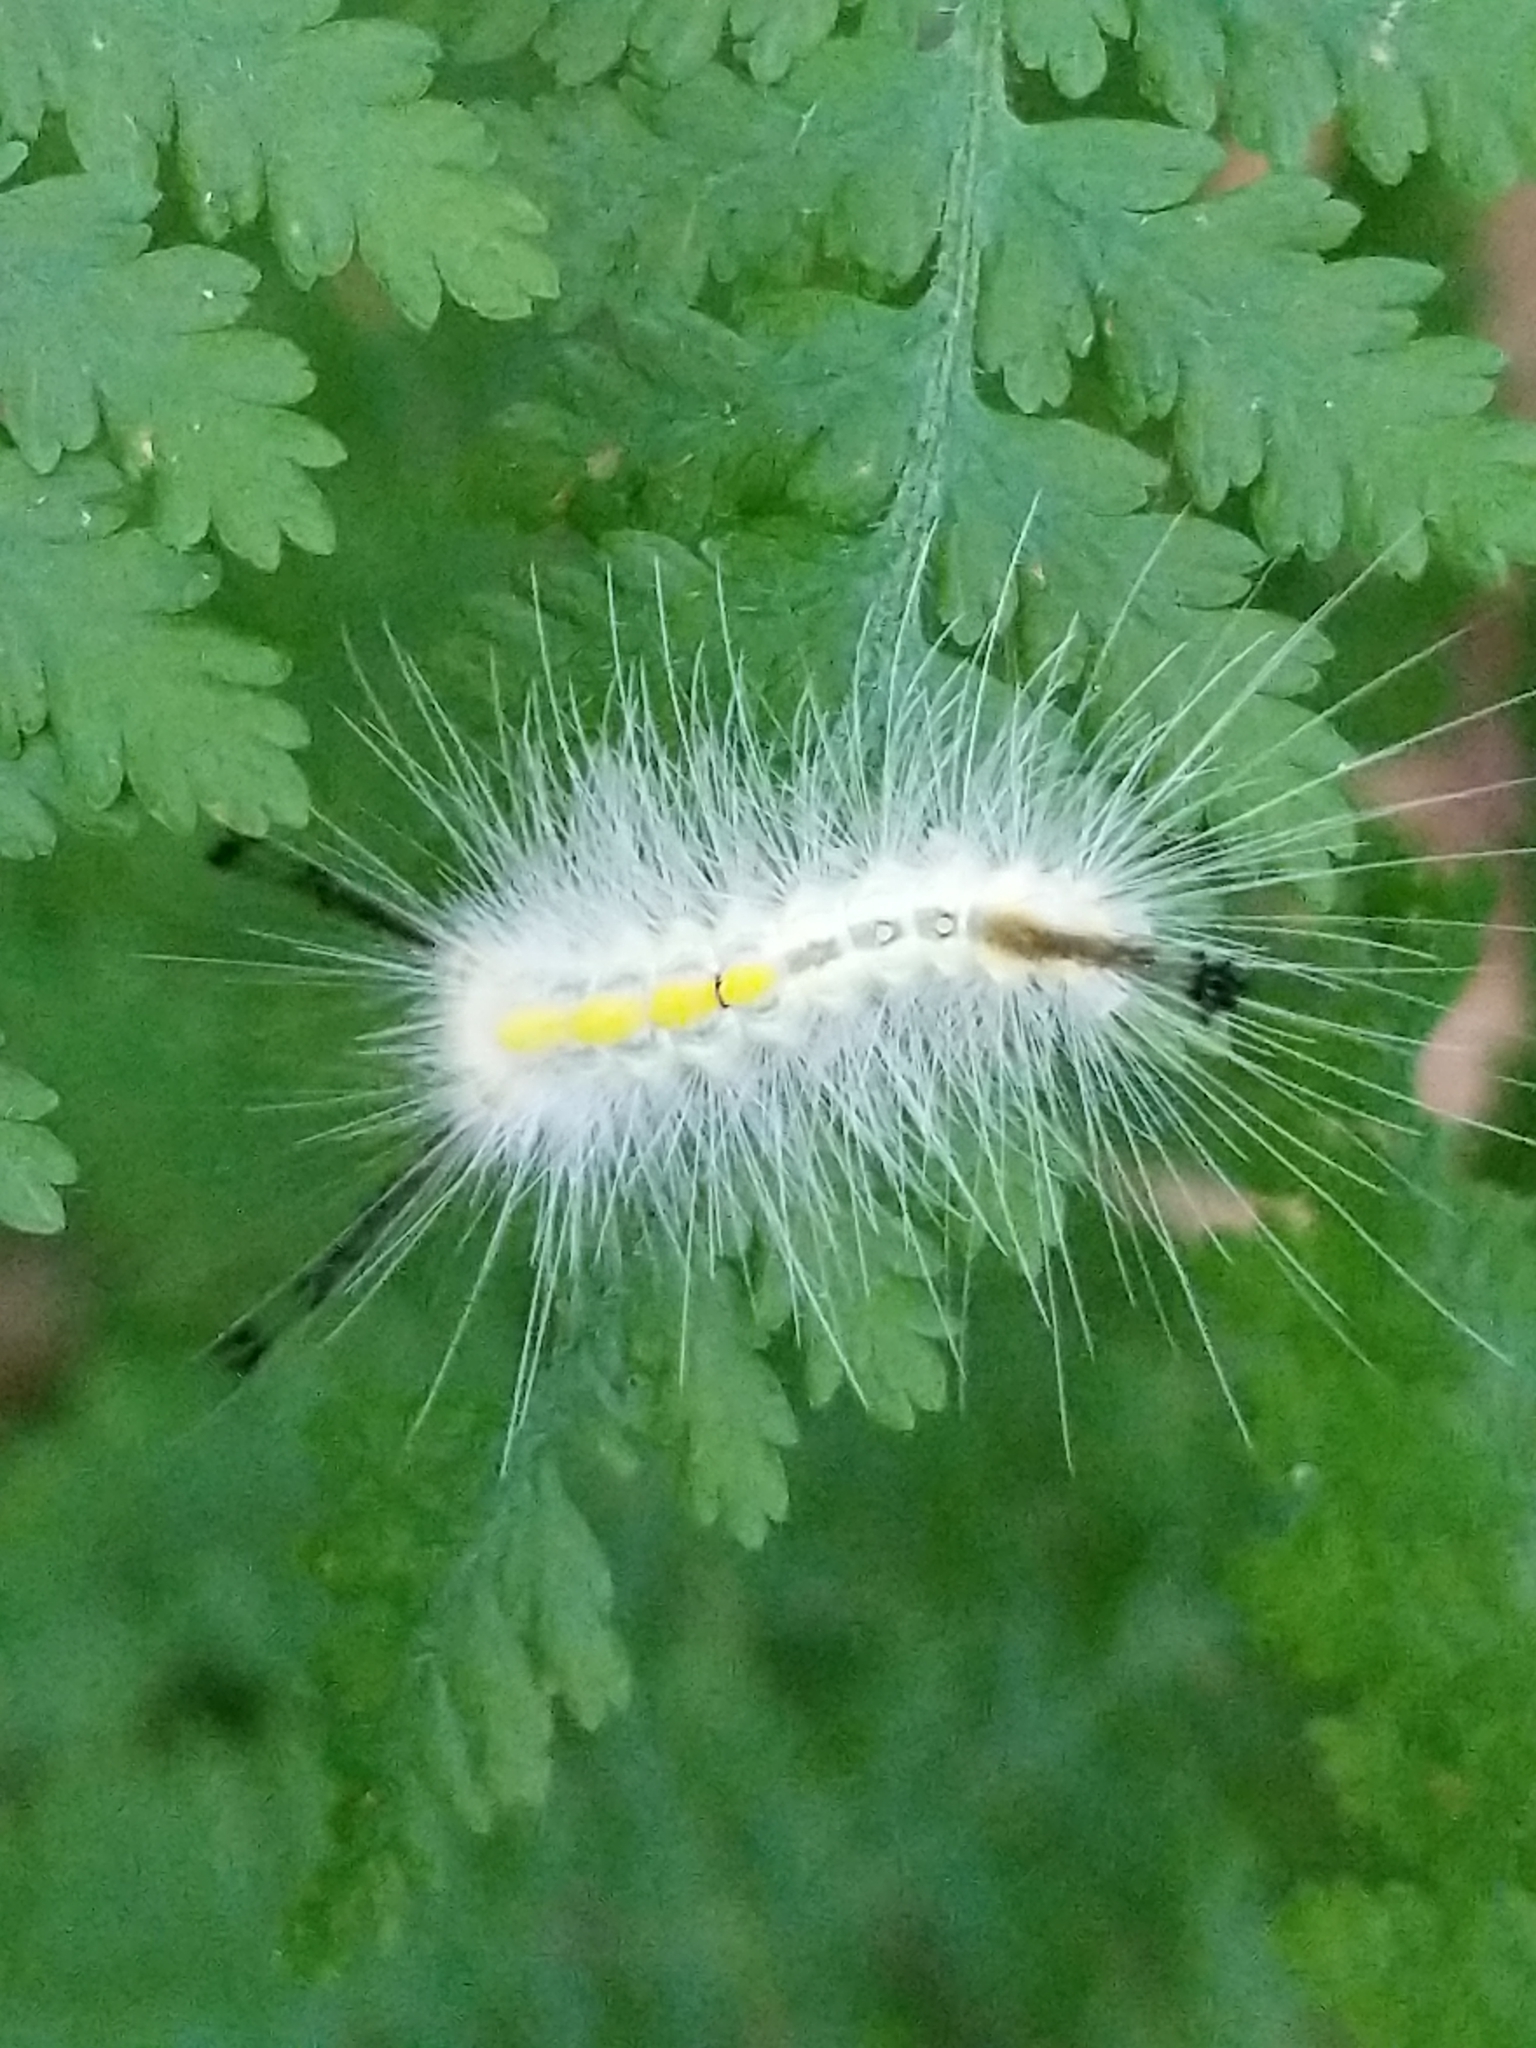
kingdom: Animalia
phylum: Arthropoda
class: Insecta
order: Lepidoptera
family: Erebidae
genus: Orgyia
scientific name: Orgyia definita
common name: Definite tussock moth
